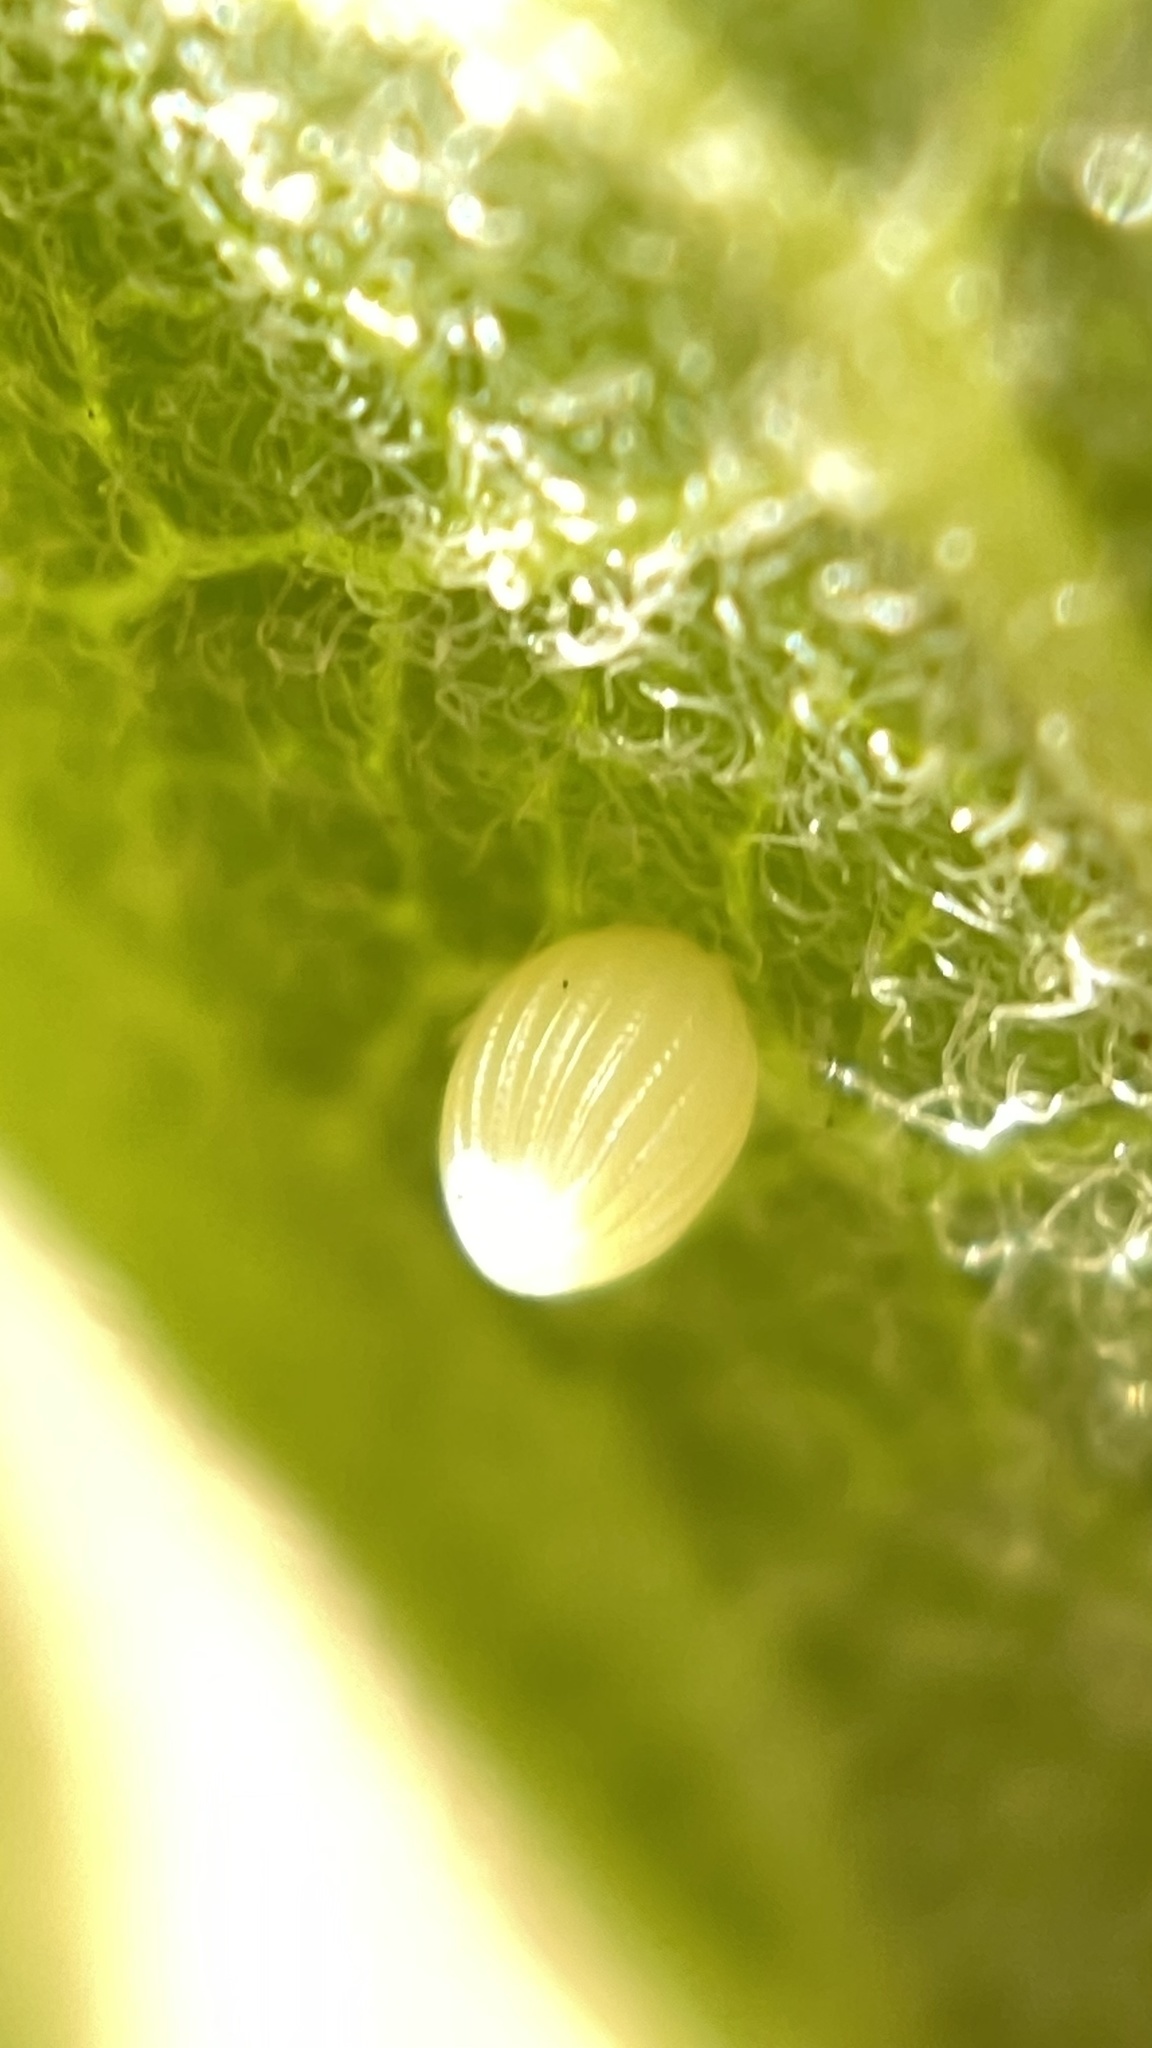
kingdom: Animalia
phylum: Arthropoda
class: Insecta
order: Lepidoptera
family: Nymphalidae
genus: Danaus
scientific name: Danaus plexippus
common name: Monarch
